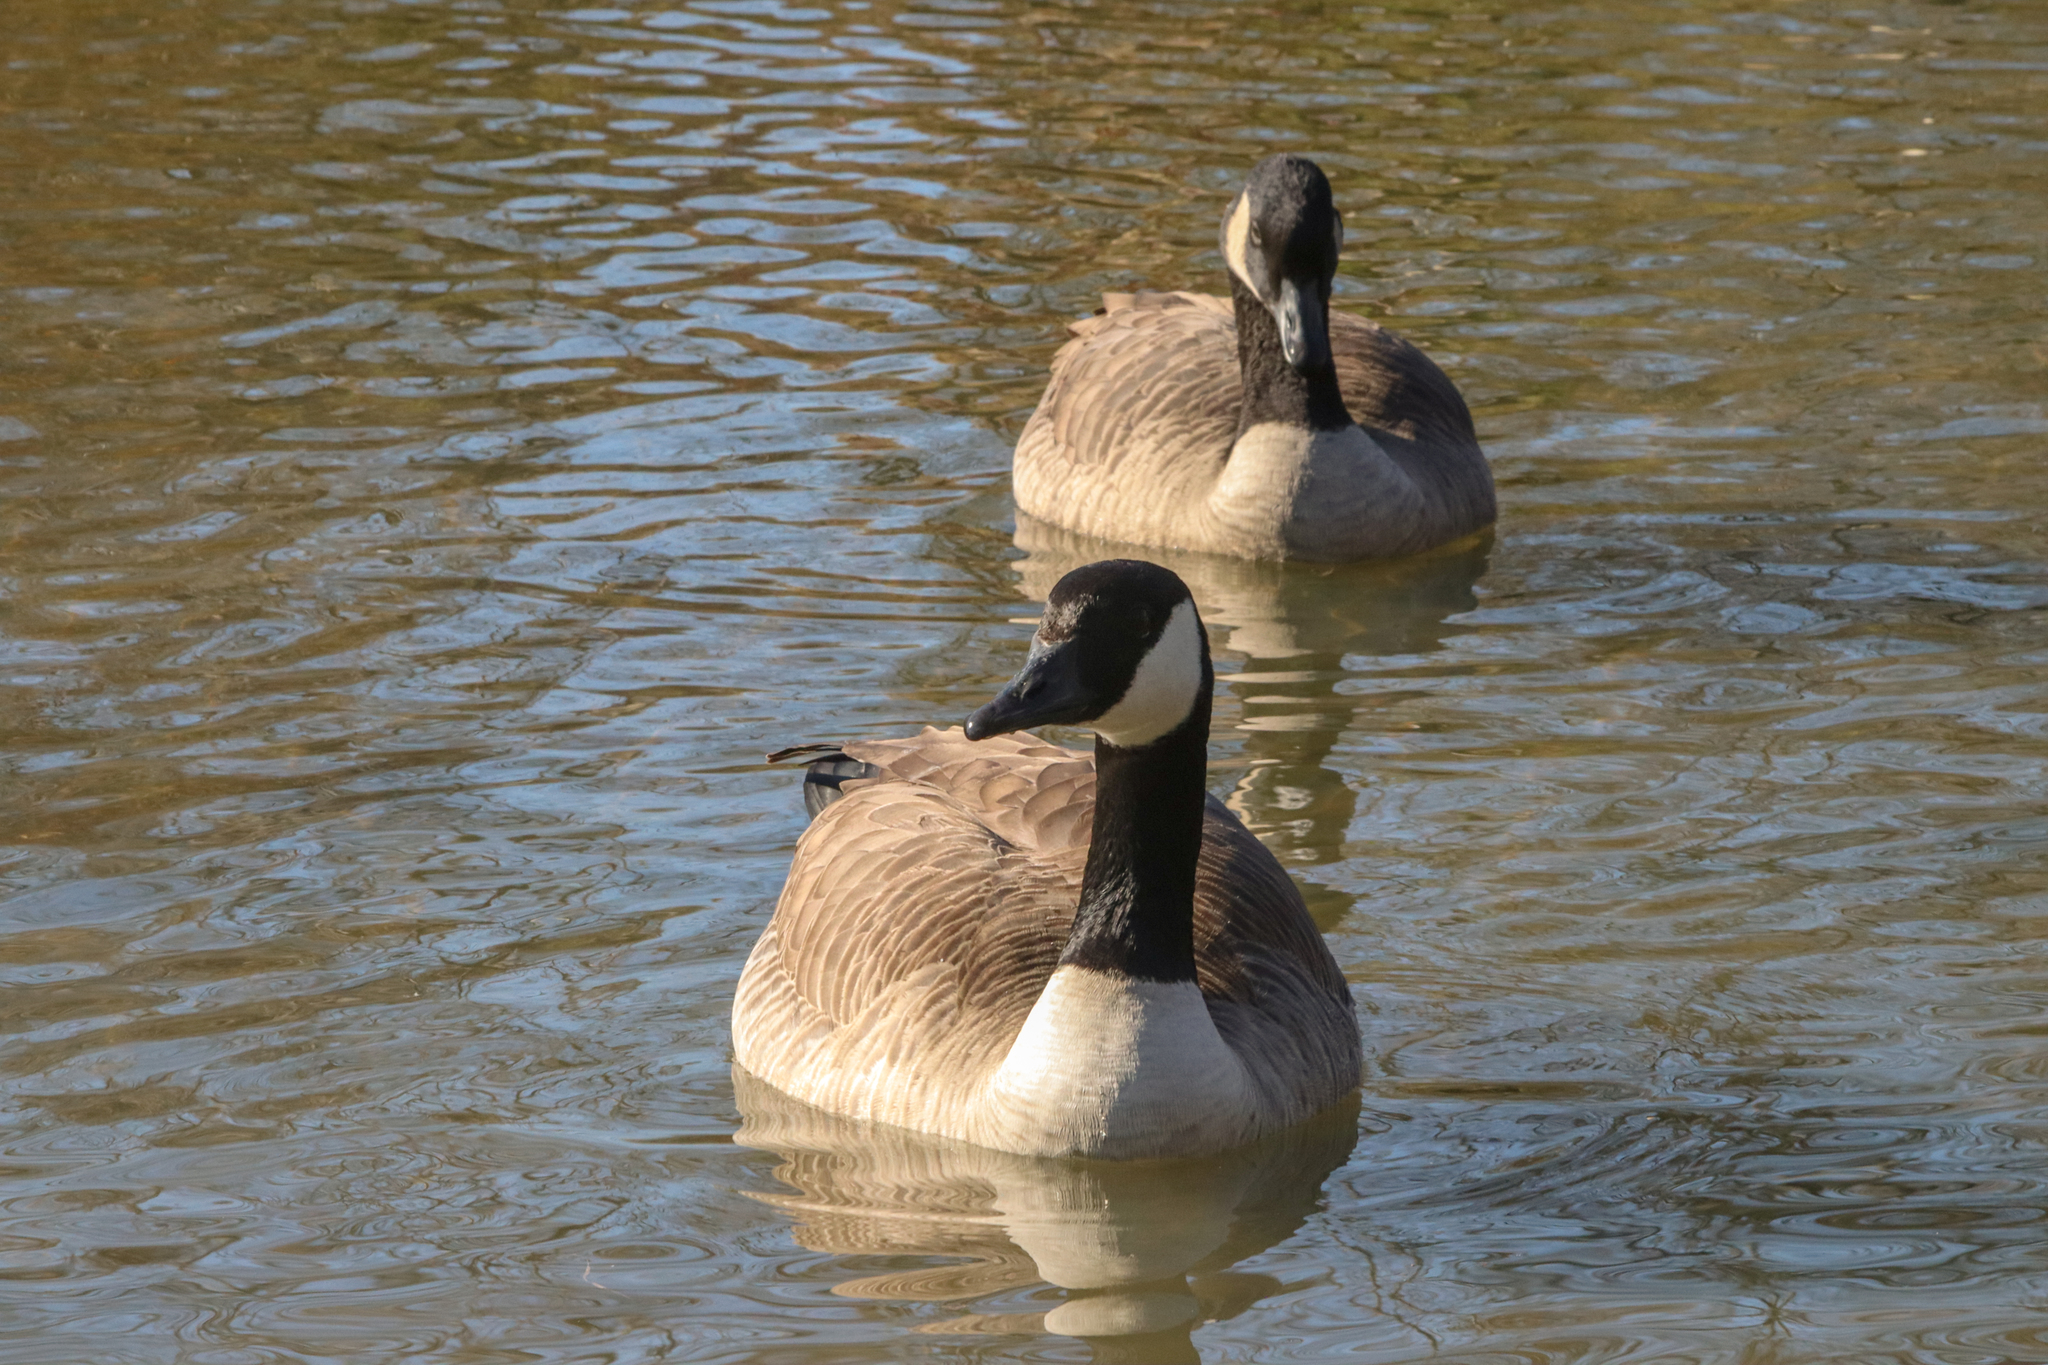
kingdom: Animalia
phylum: Chordata
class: Aves
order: Anseriformes
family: Anatidae
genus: Branta
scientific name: Branta canadensis
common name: Canada goose
